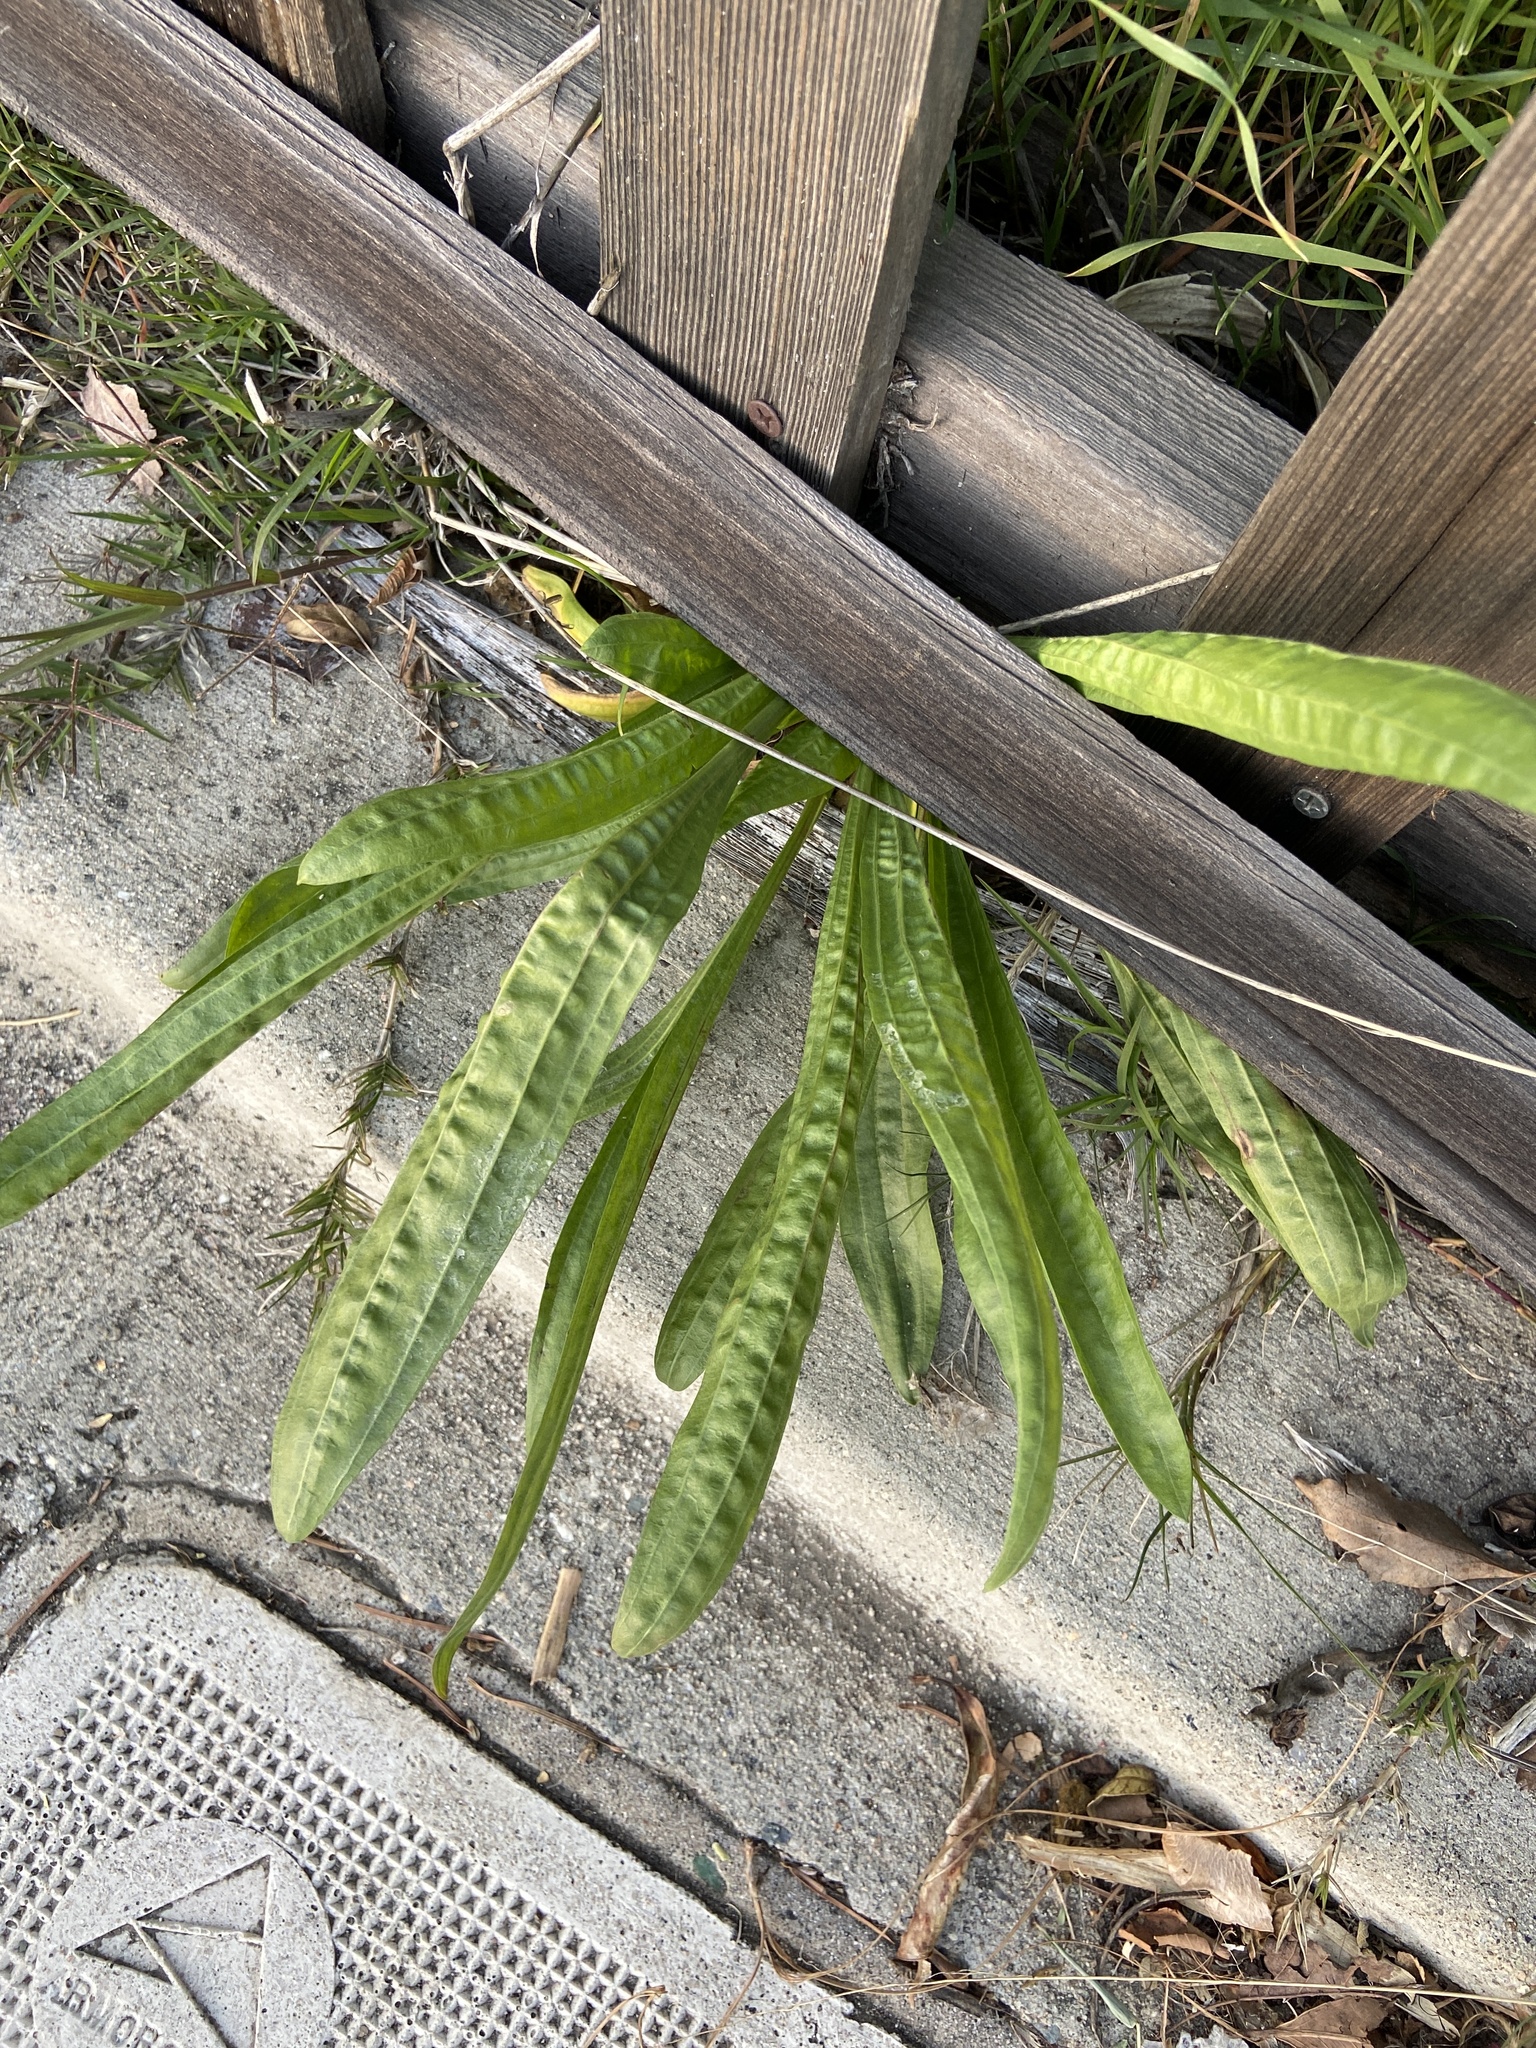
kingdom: Plantae
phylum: Tracheophyta
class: Magnoliopsida
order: Lamiales
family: Plantaginaceae
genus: Plantago
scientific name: Plantago lanceolata
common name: Ribwort plantain
